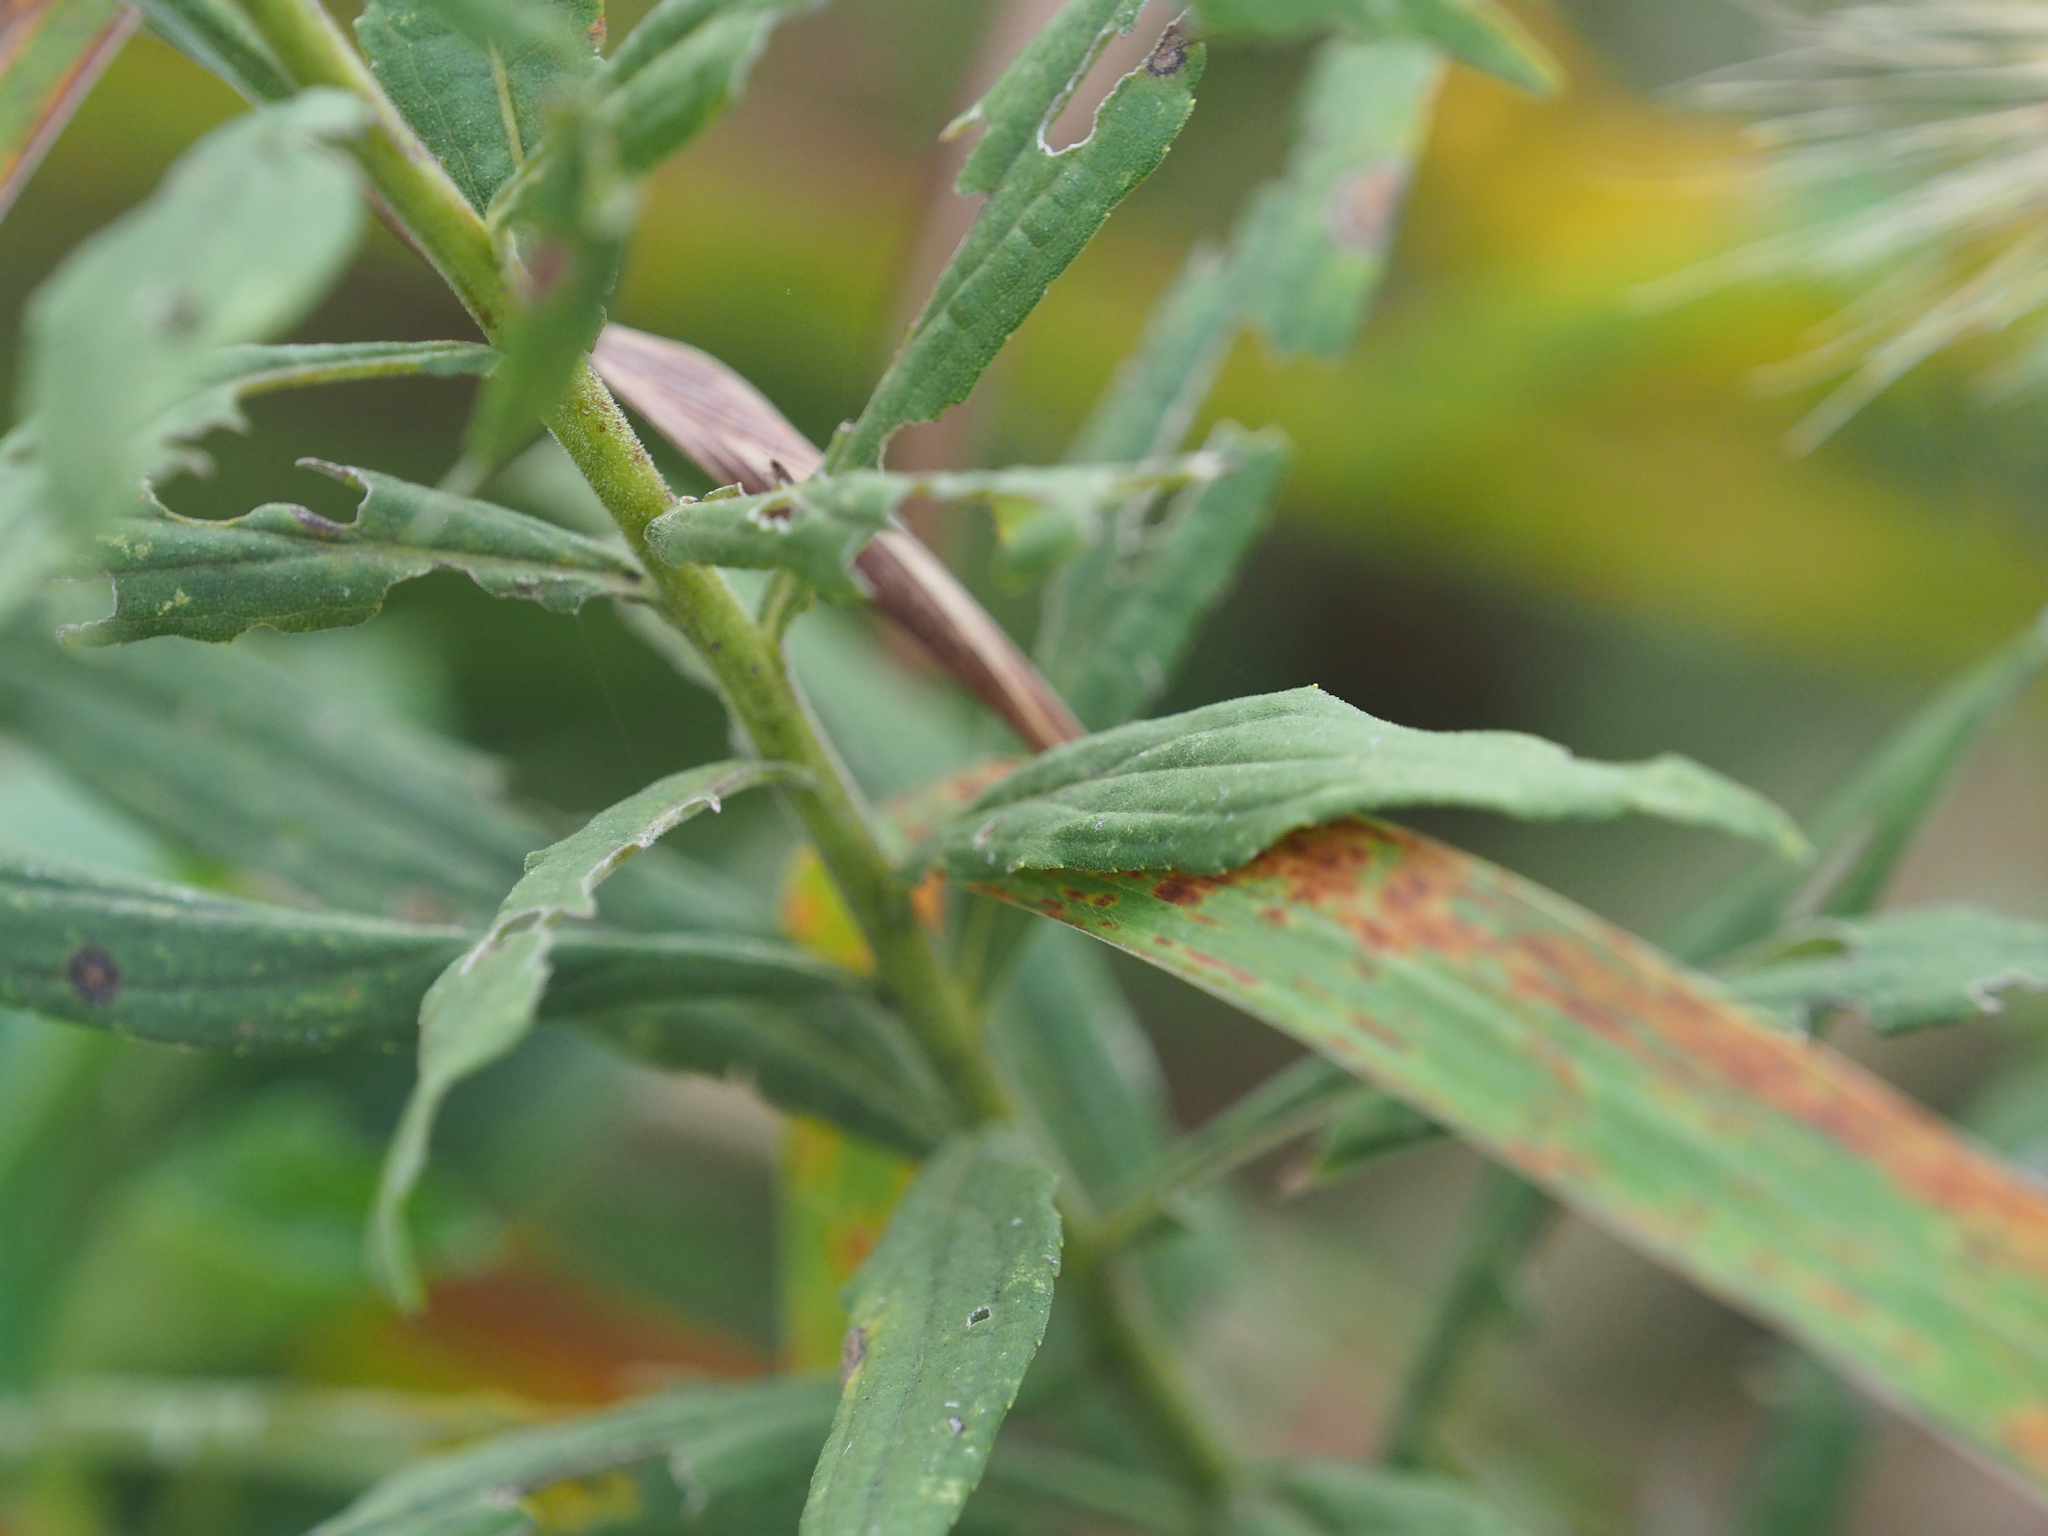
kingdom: Plantae
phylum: Tracheophyta
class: Magnoliopsida
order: Asterales
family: Asteraceae
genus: Solidago
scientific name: Solidago altissima
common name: Late goldenrod
